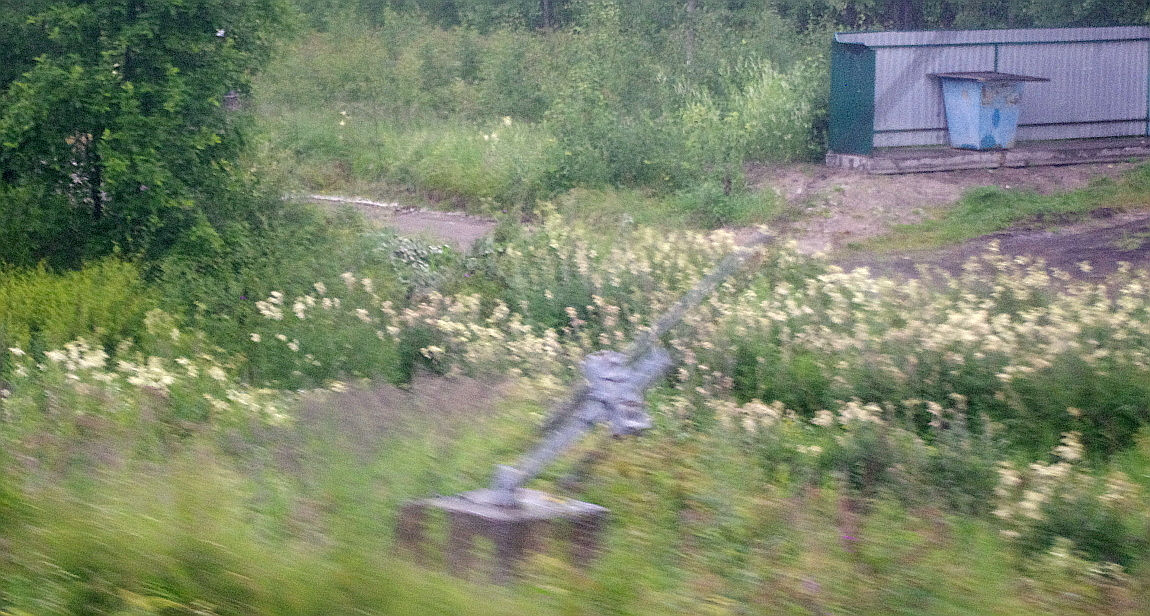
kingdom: Plantae
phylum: Tracheophyta
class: Magnoliopsida
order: Rosales
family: Rosaceae
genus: Filipendula
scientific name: Filipendula ulmaria
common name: Meadowsweet
